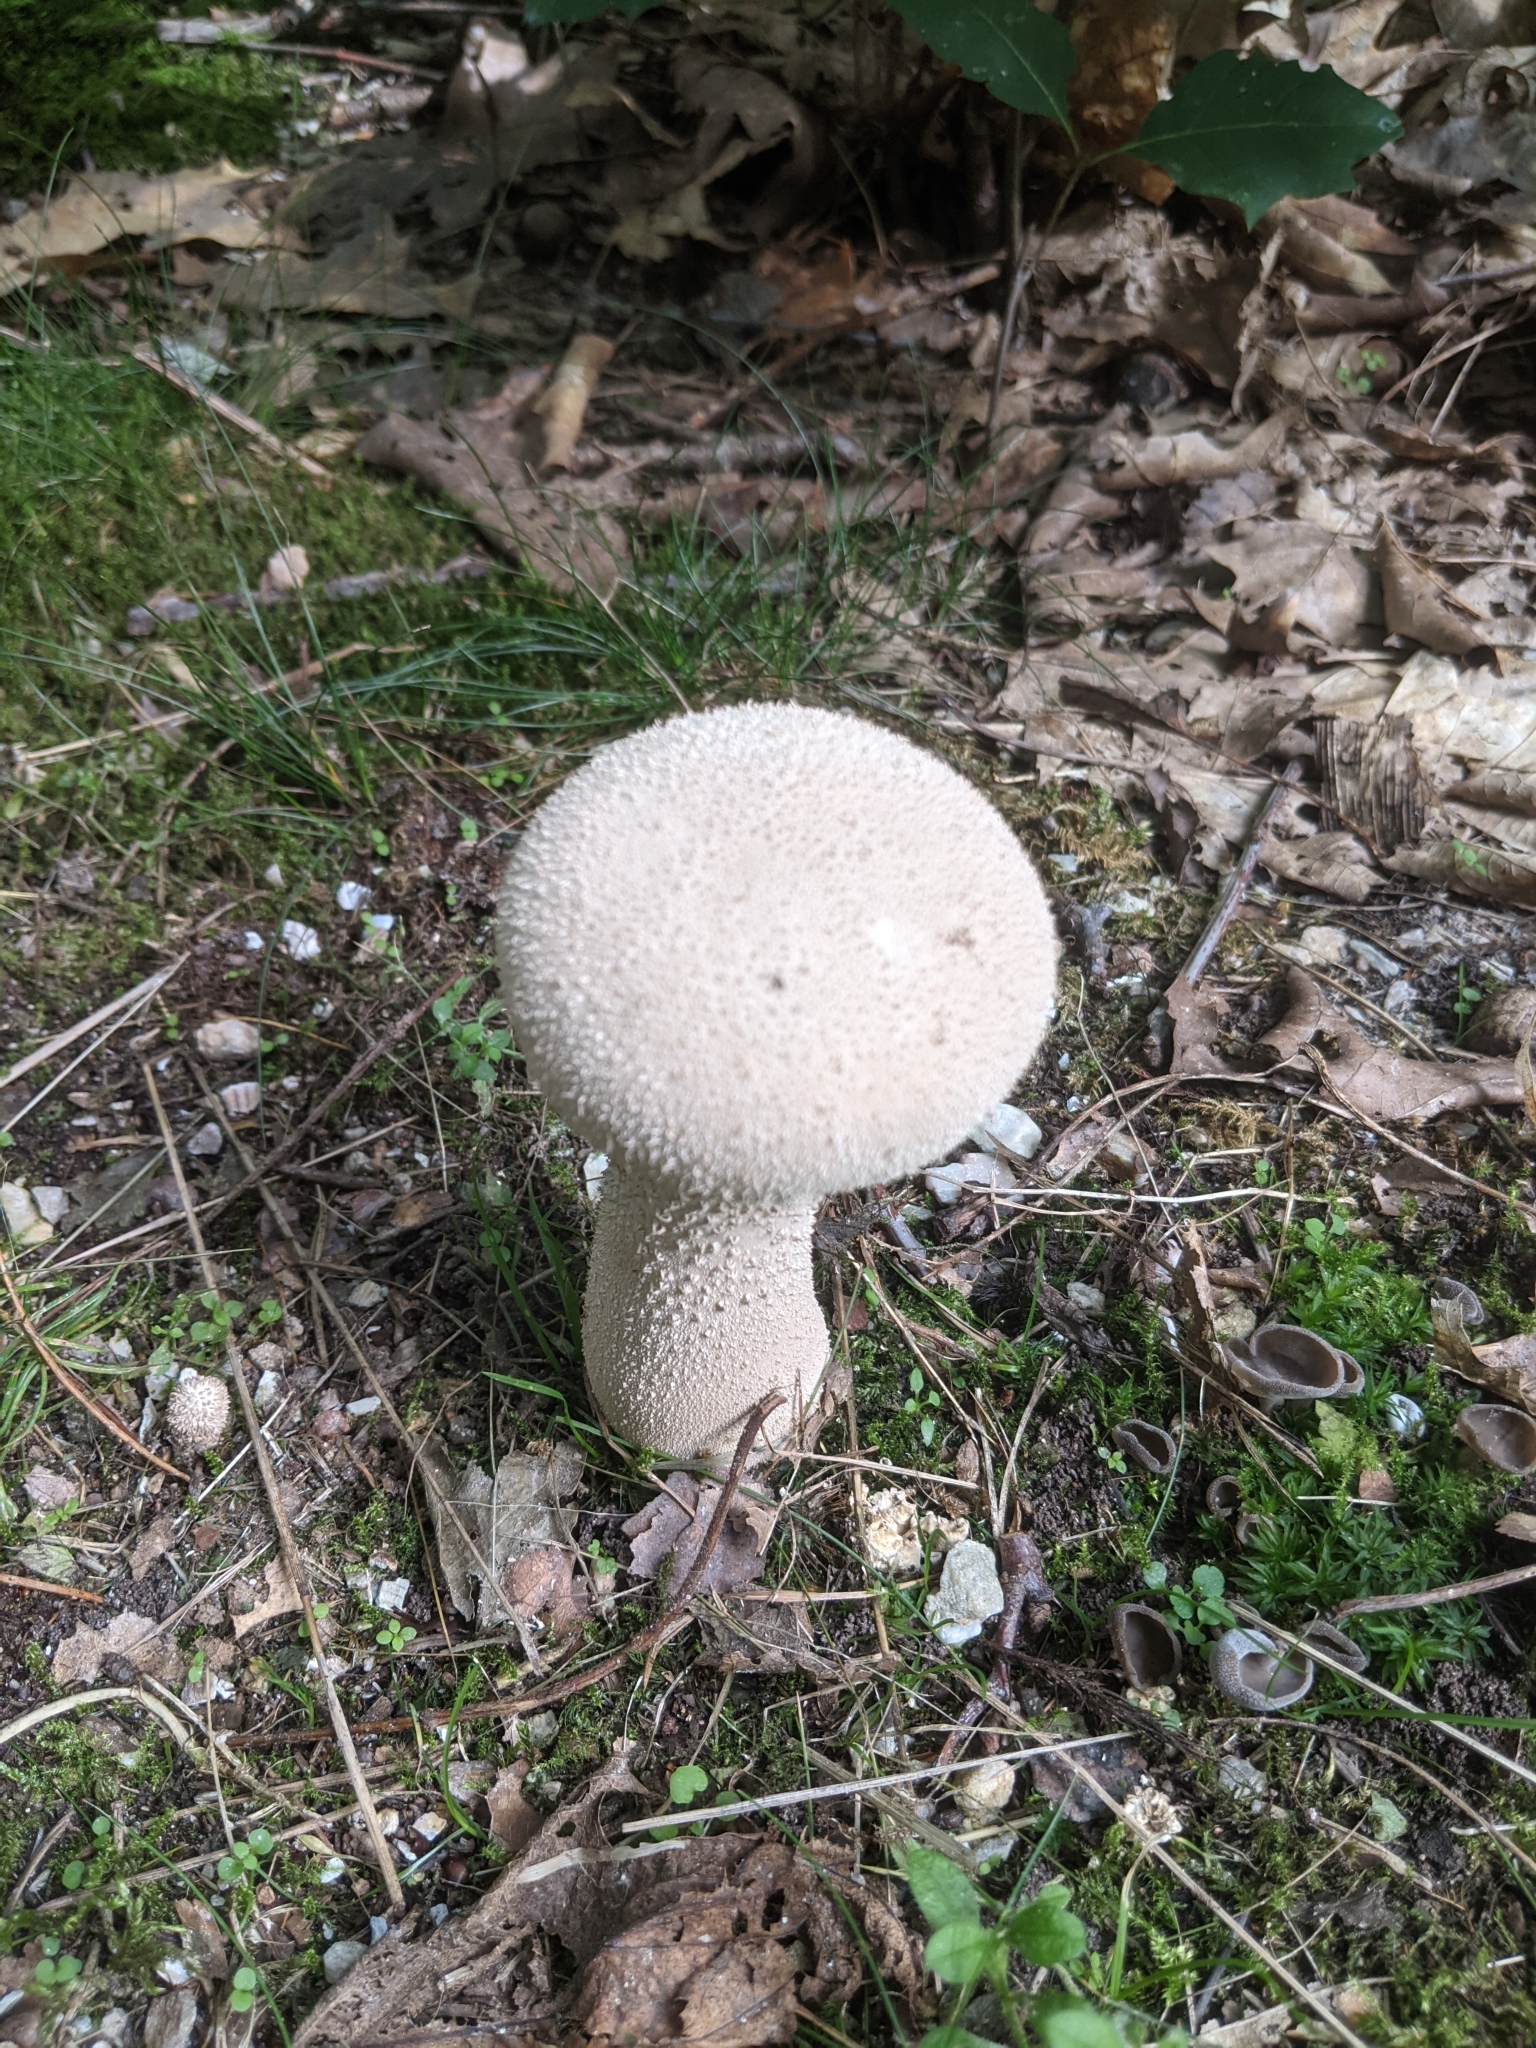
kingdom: Fungi
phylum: Basidiomycota
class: Agaricomycetes
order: Agaricales
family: Lycoperdaceae
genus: Lycoperdon
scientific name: Lycoperdon excipuliforme
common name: Pestle puffball
